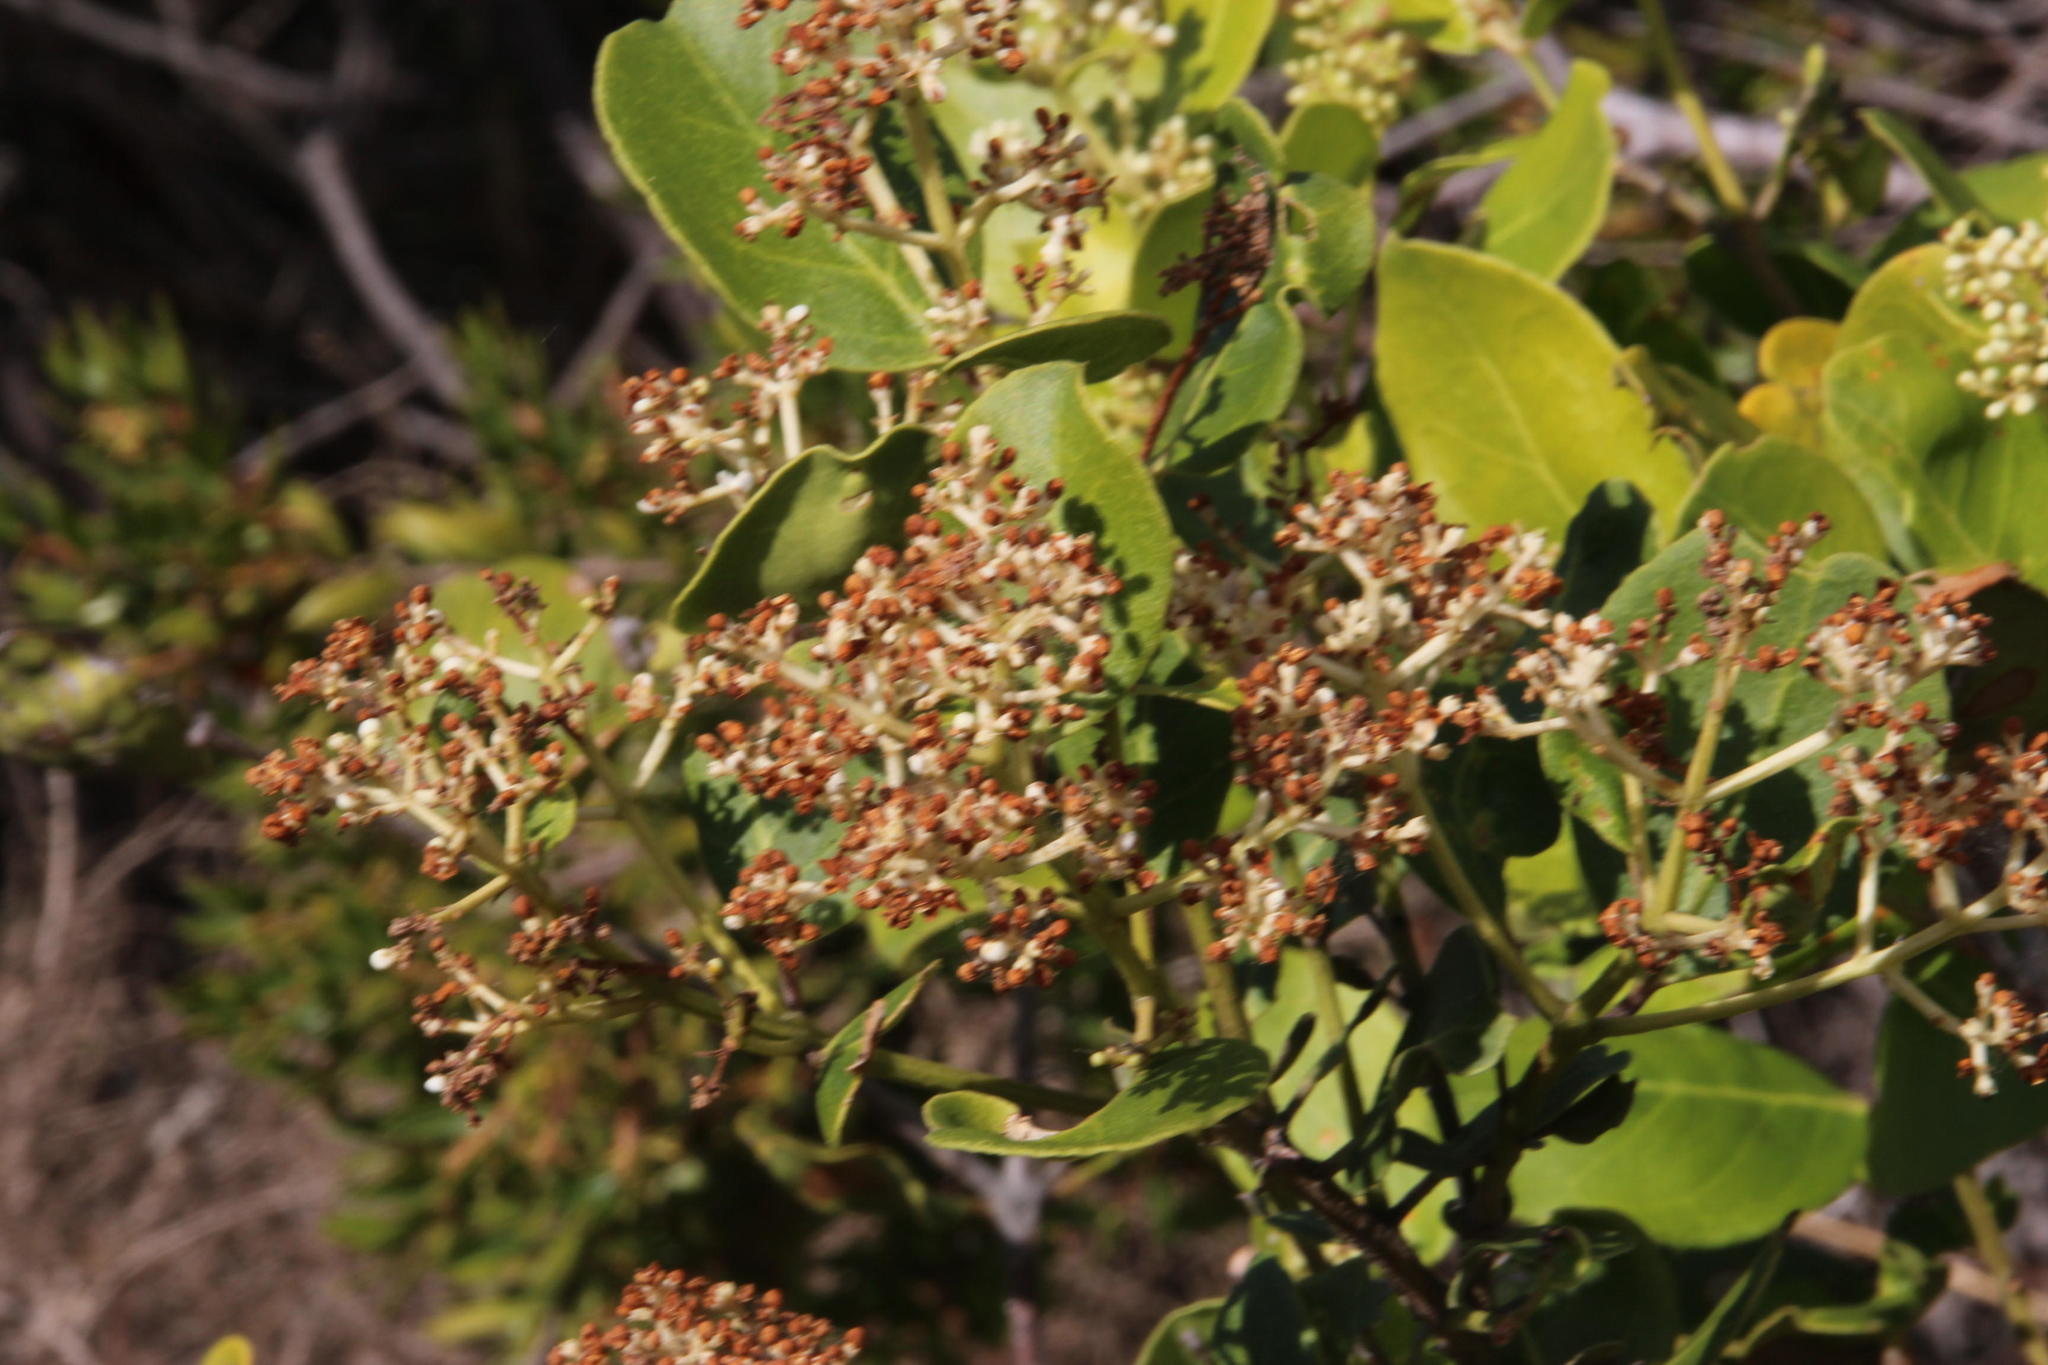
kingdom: Plantae
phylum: Tracheophyta
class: Magnoliopsida
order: Lamiales
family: Oleaceae
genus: Olea
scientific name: Olea capensis
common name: Black ironwood
